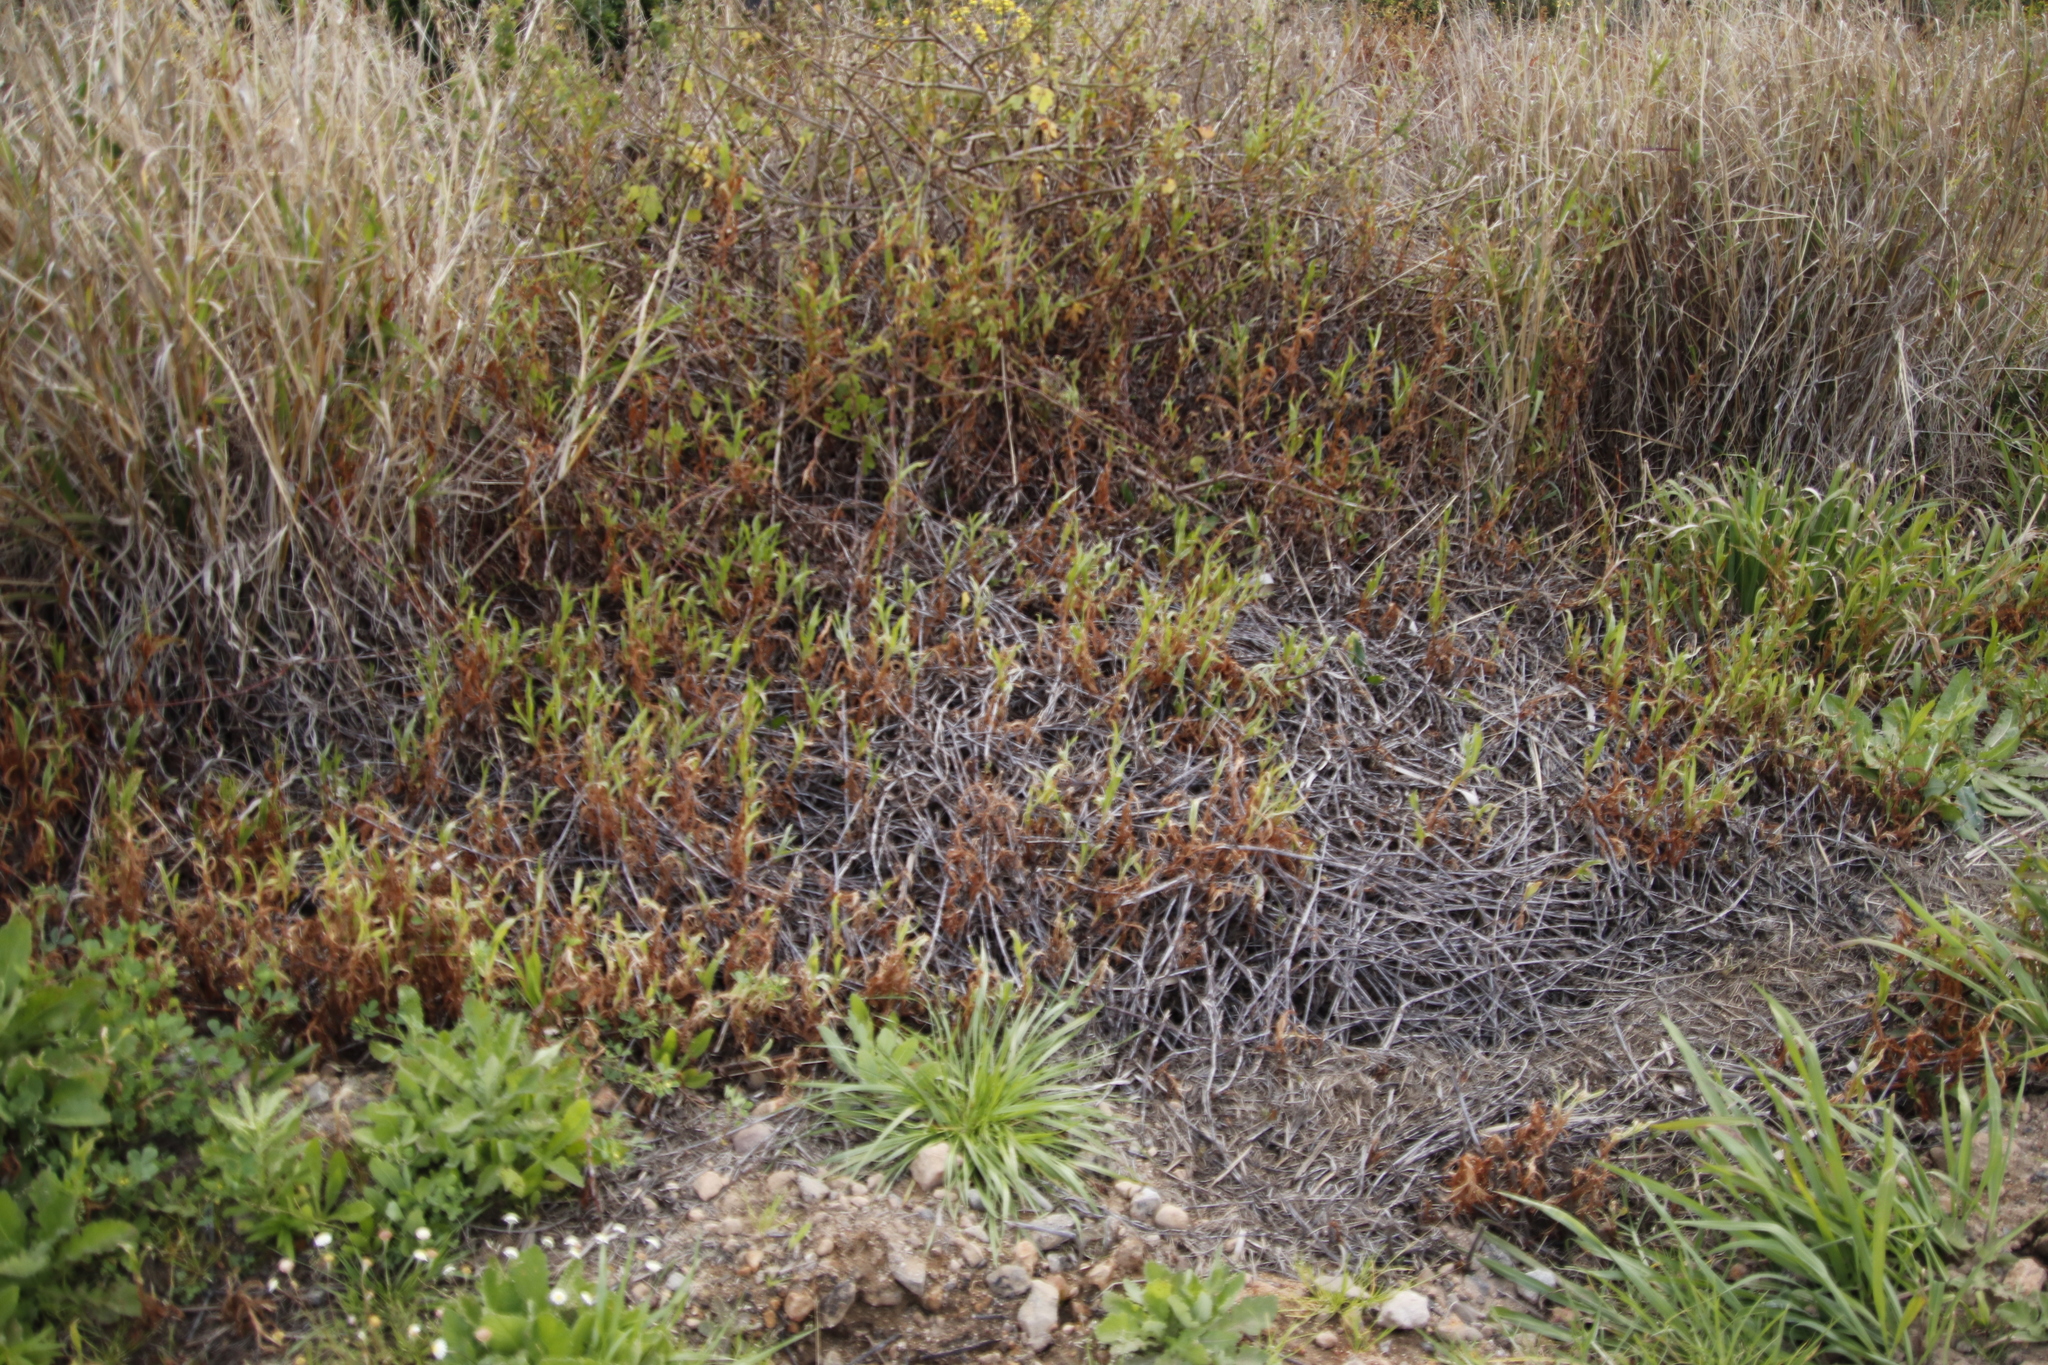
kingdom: Plantae
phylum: Tracheophyta
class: Magnoliopsida
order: Caryophyllales
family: Polygonaceae
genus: Persicaria
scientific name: Persicaria madagascariensis
